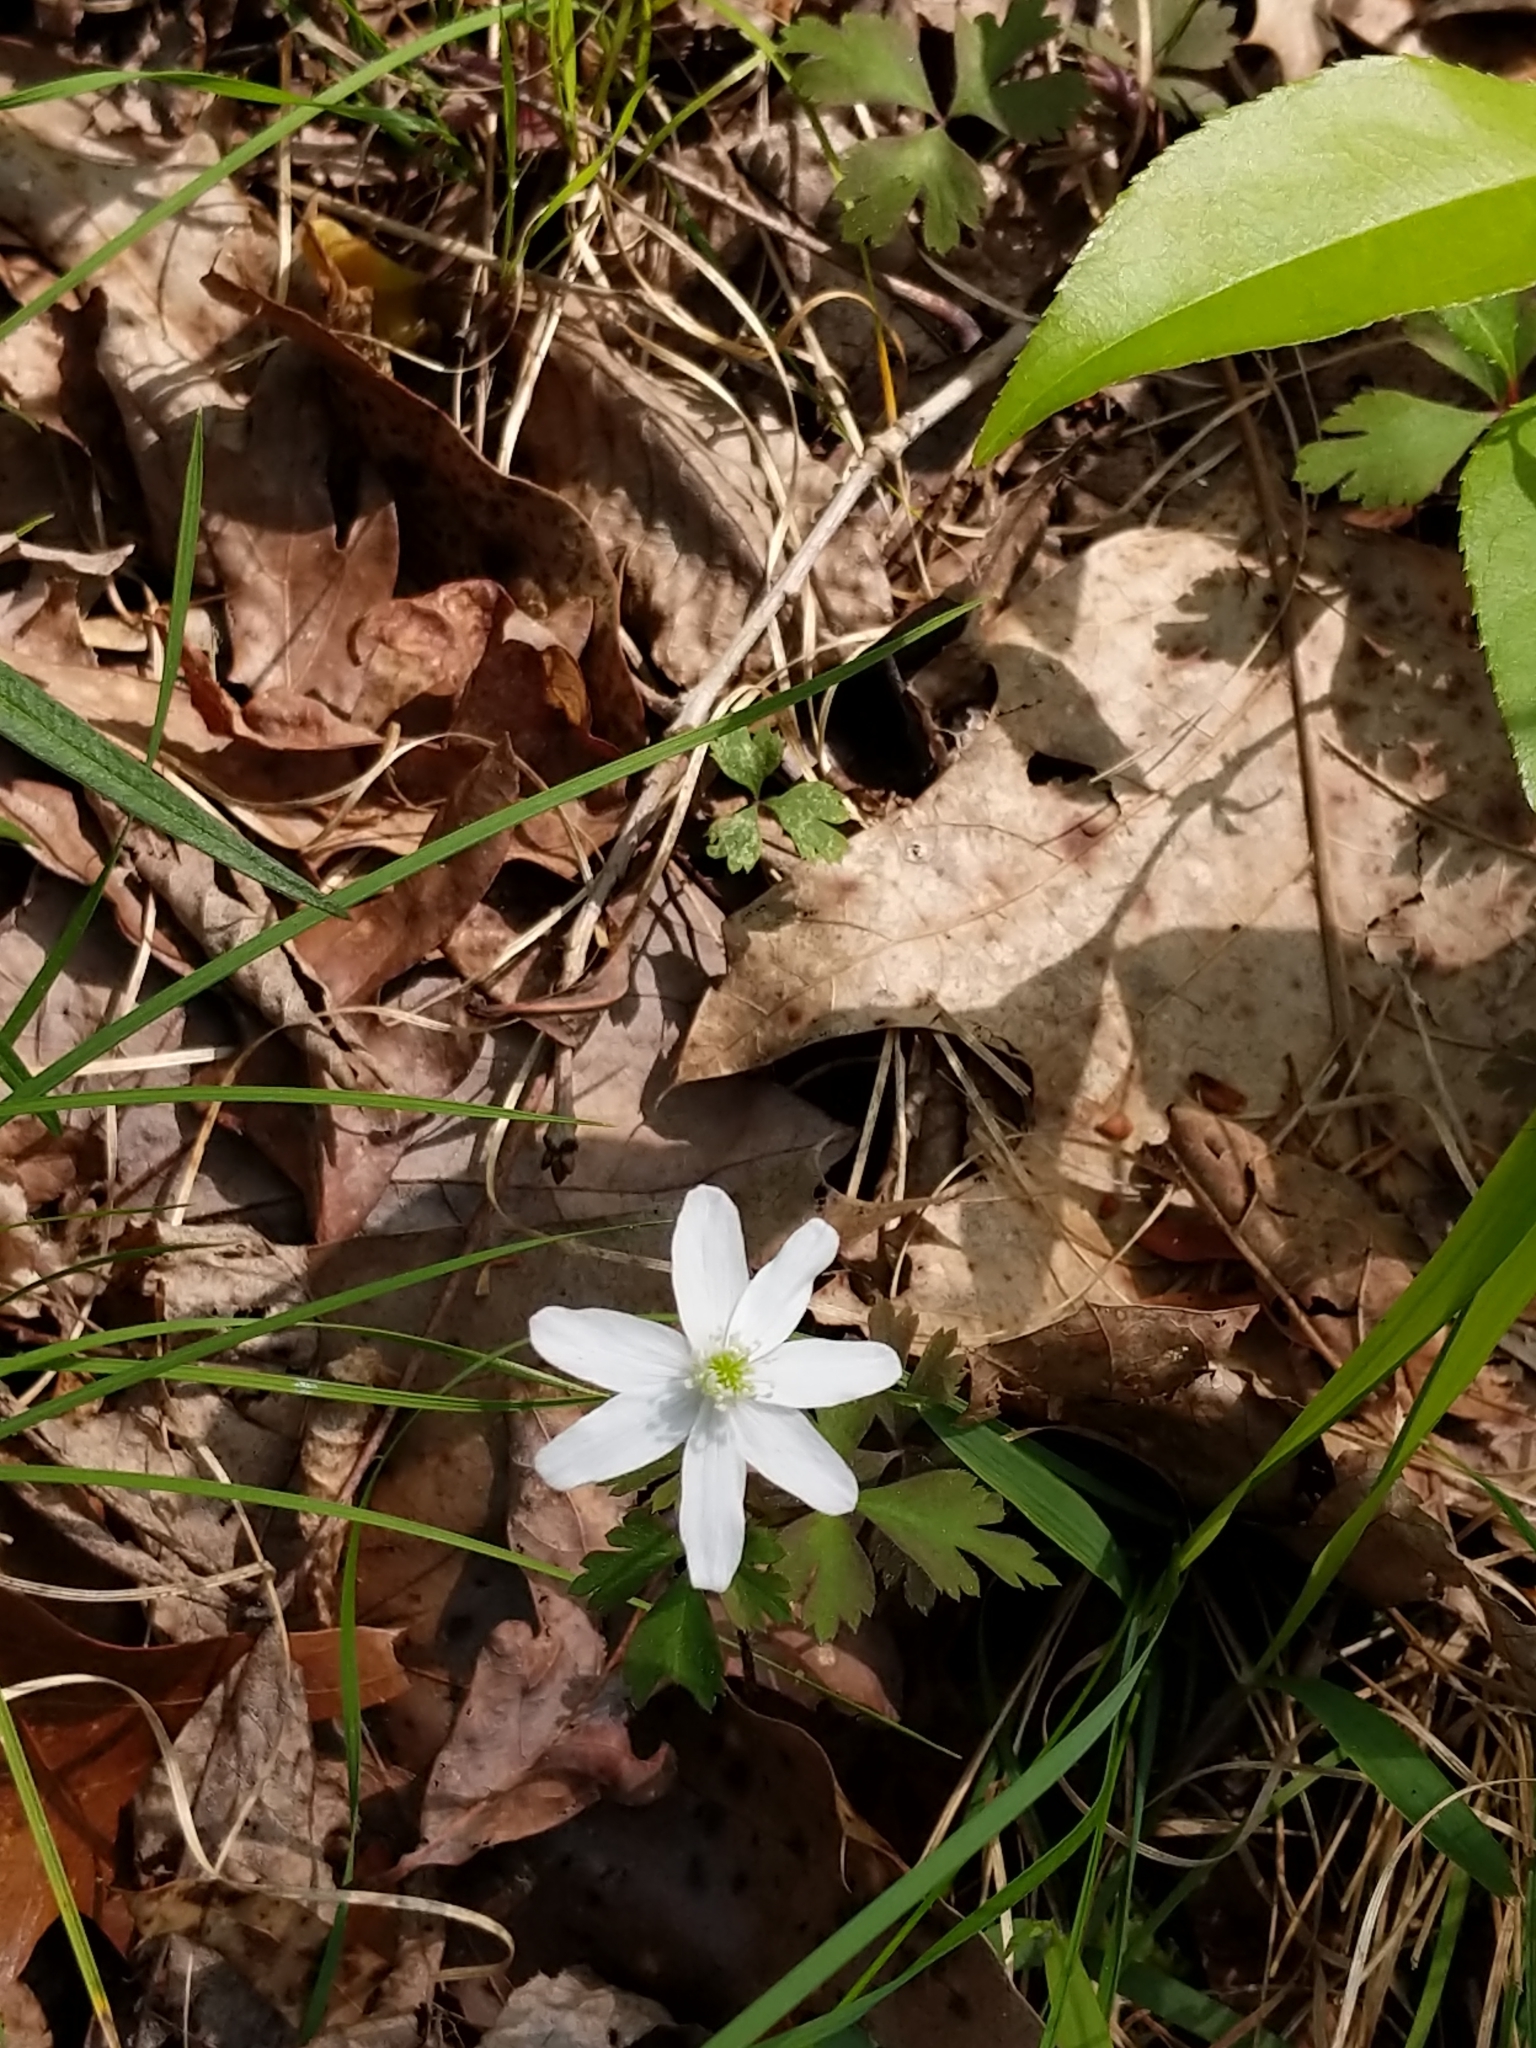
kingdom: Plantae
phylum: Tracheophyta
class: Magnoliopsida
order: Ranunculales
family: Ranunculaceae
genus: Anemone
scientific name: Anemone quinquefolia
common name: Wood anemone
